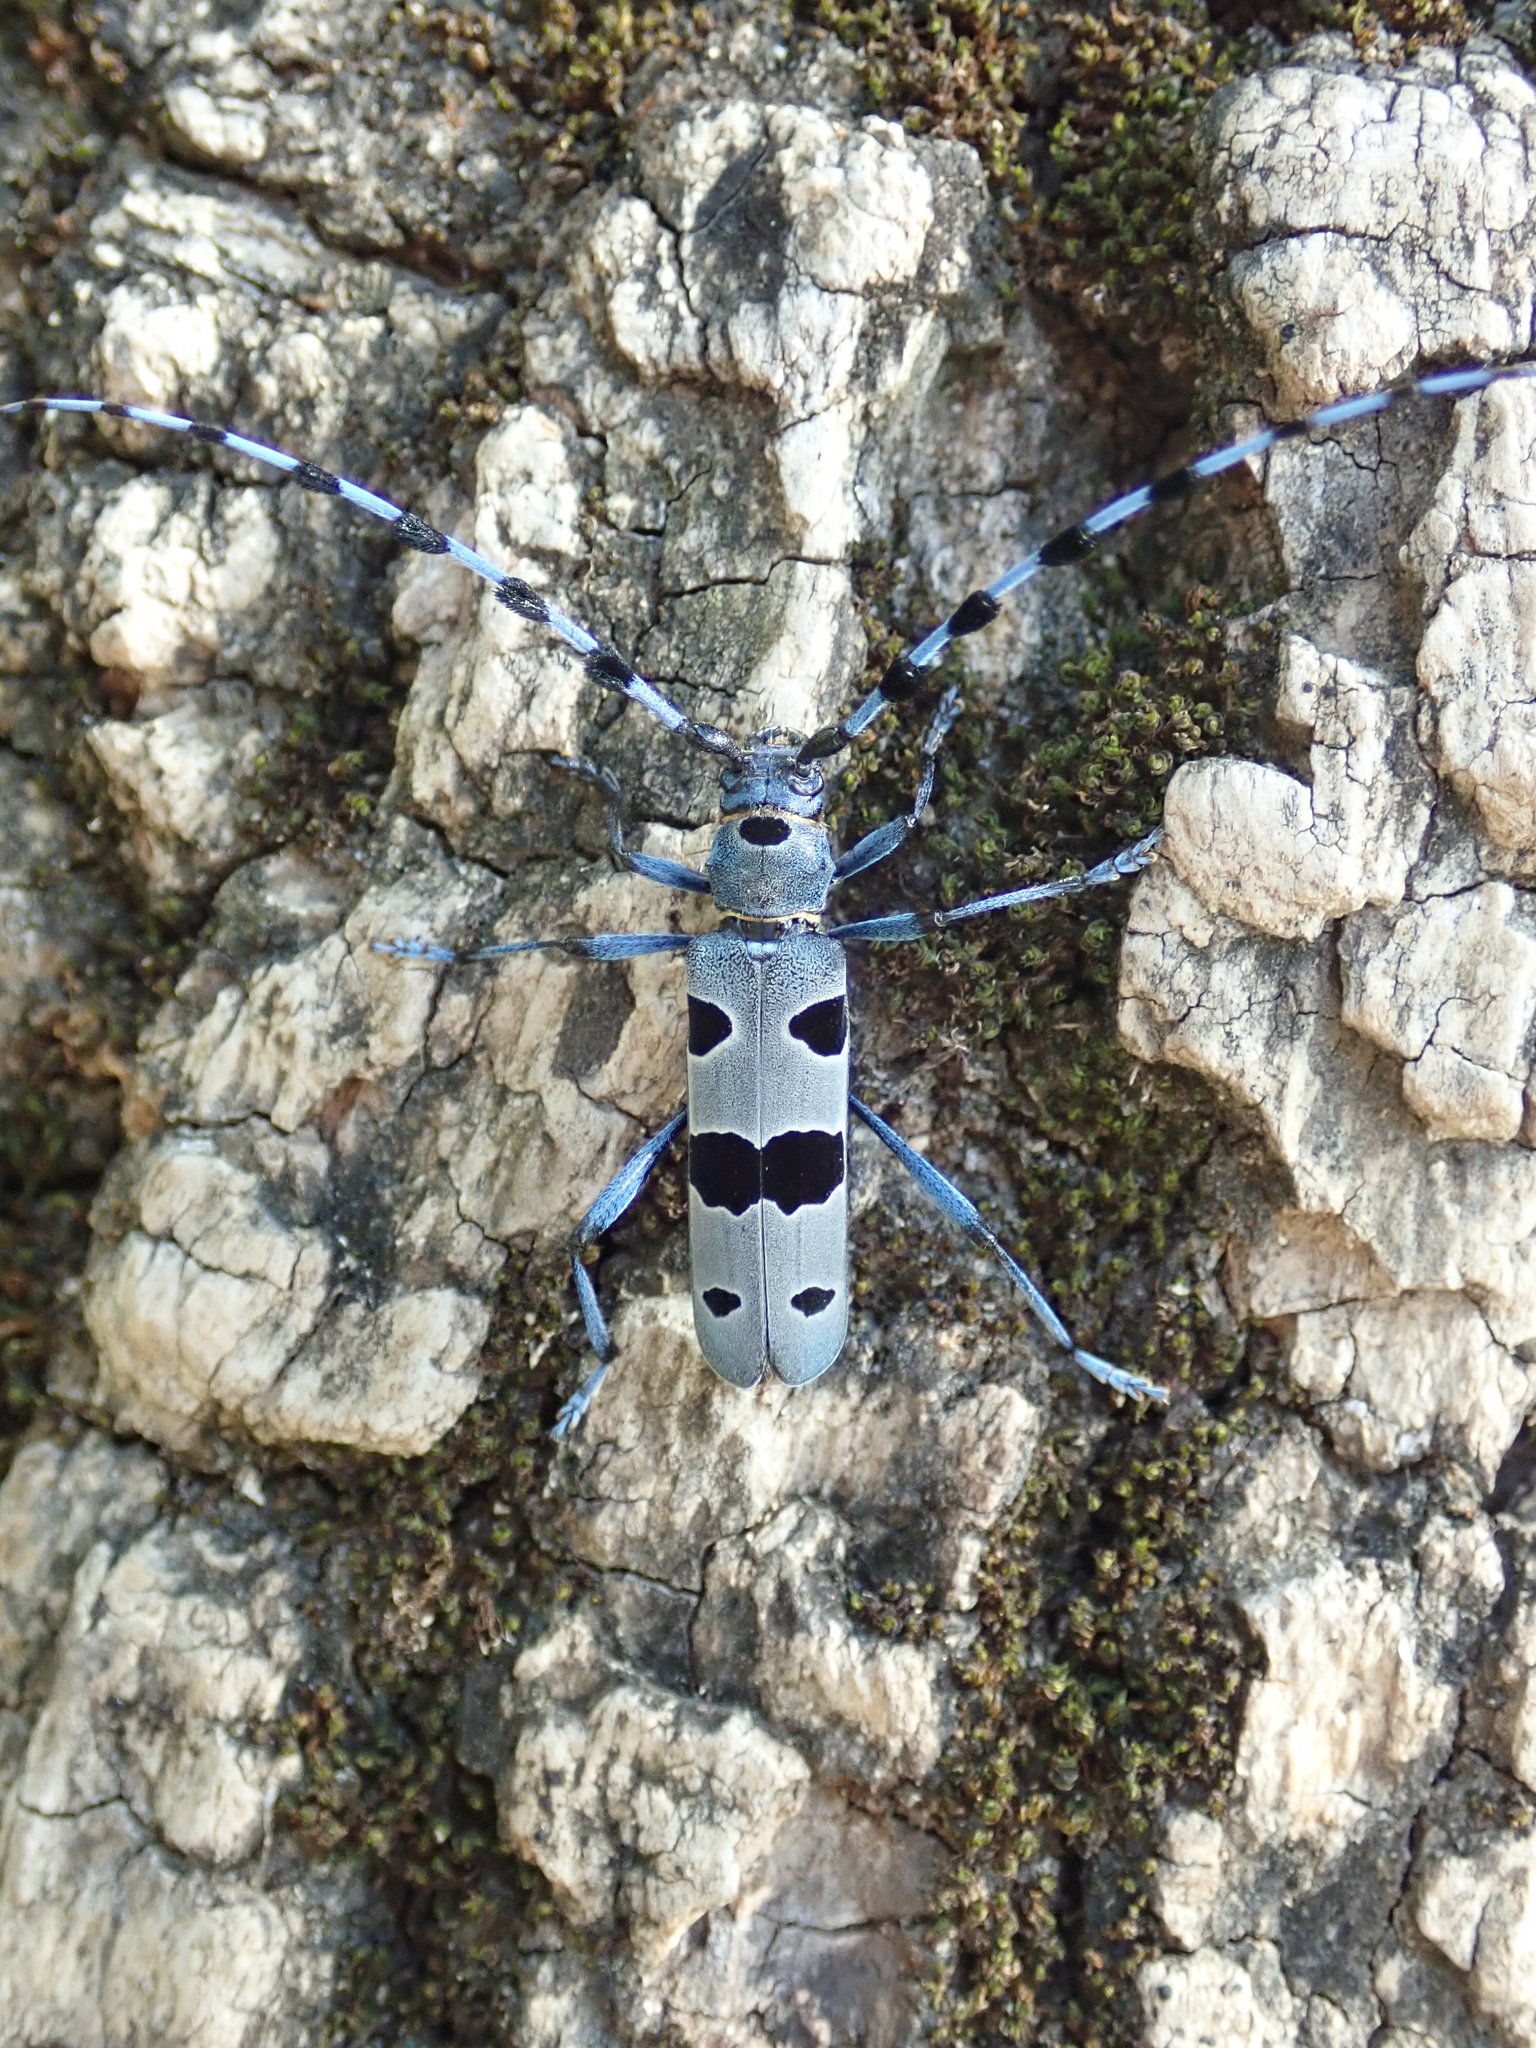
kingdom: Animalia
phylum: Arthropoda
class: Insecta
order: Coleoptera
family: Cerambycidae
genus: Rosalia
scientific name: Rosalia alpina
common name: Rosalia longicorn
